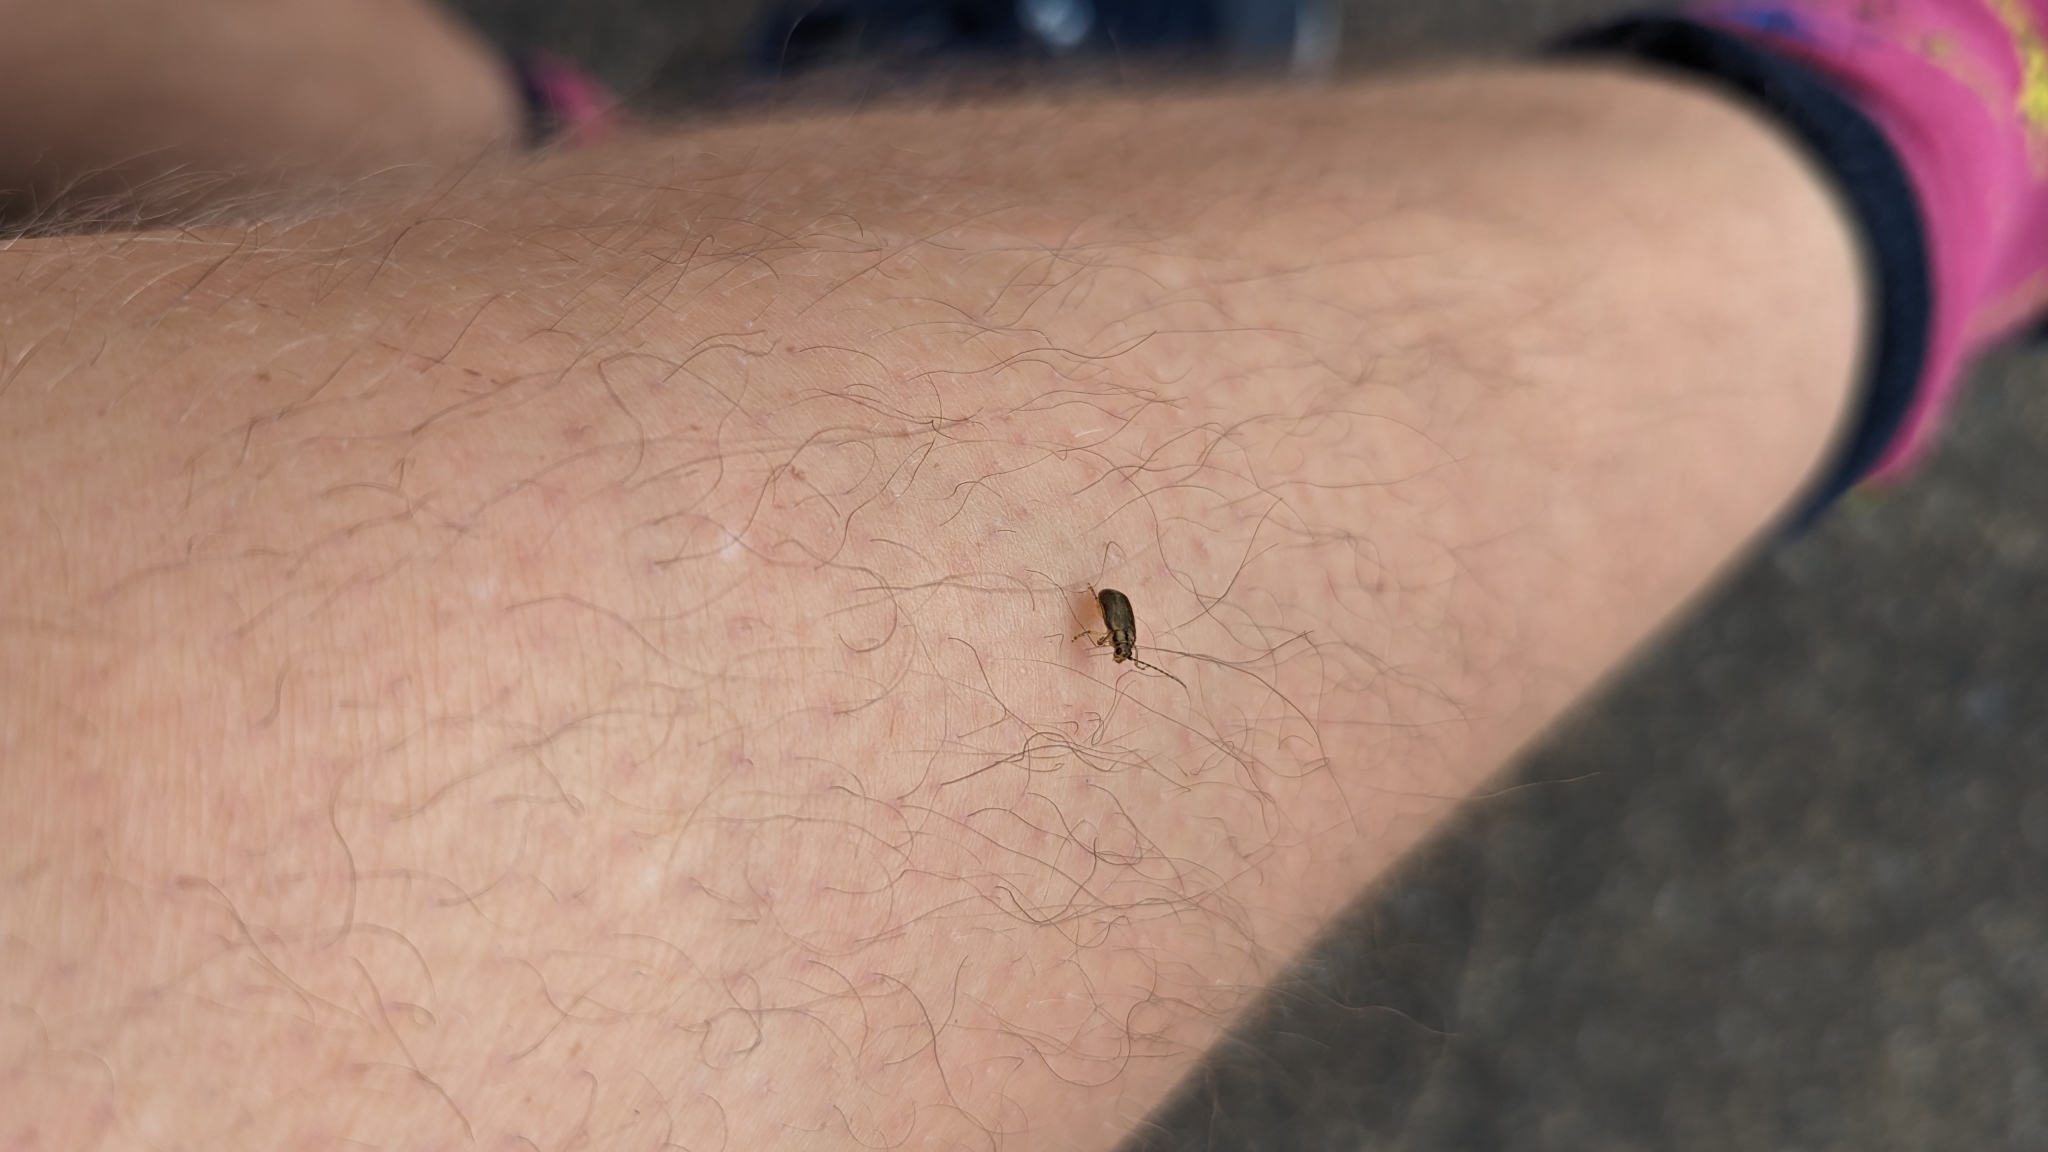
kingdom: Animalia
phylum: Arthropoda
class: Insecta
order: Coleoptera
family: Chrysomelidae
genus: Pyrrhalta
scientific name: Pyrrhalta viburni
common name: Guelder-rose leaf beetle
